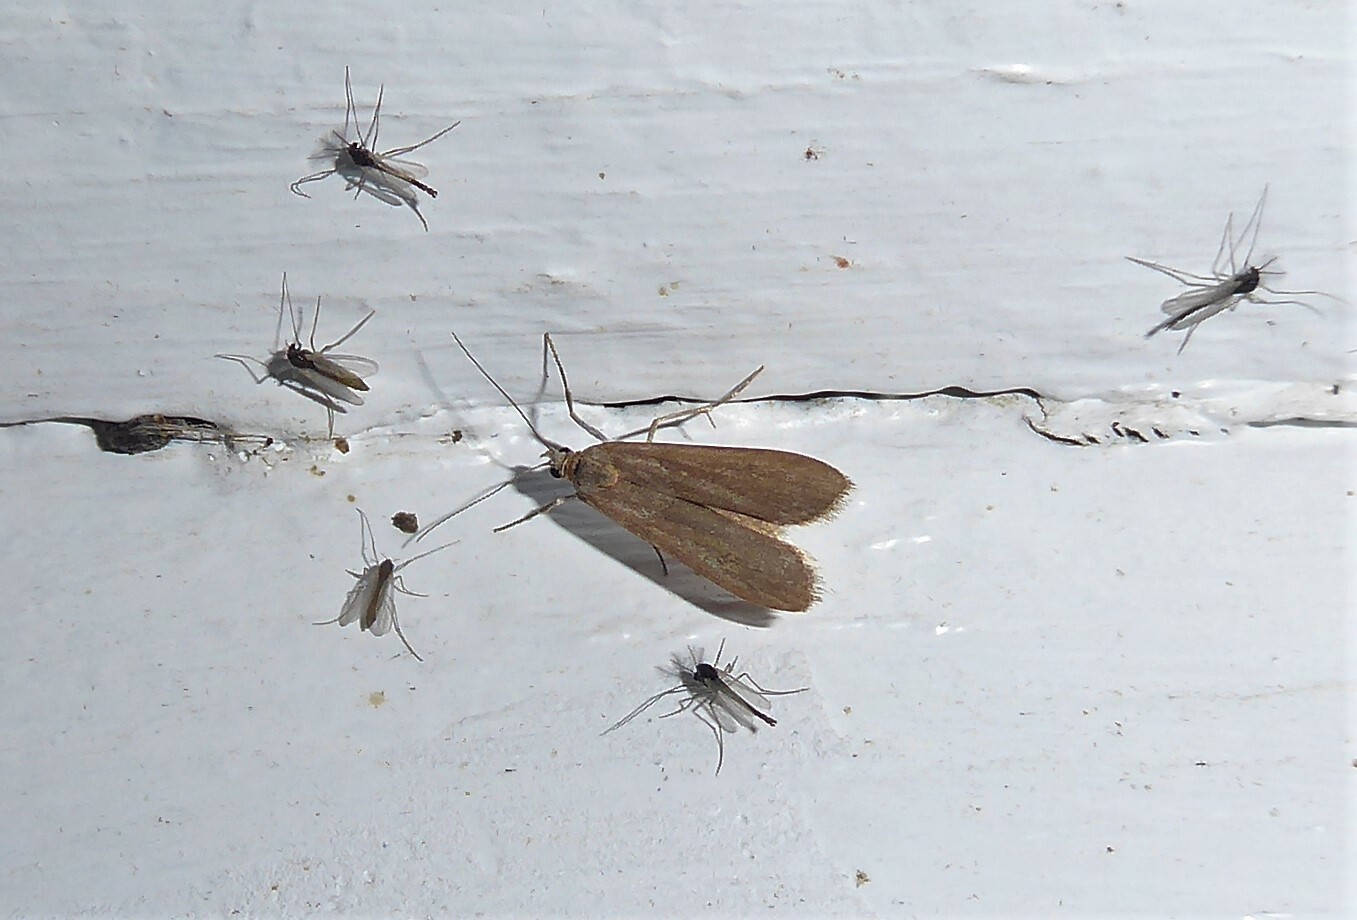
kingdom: Animalia
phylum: Arthropoda
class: Insecta
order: Lepidoptera
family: Crambidae
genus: Eudonia
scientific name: Eudonia leptalea
